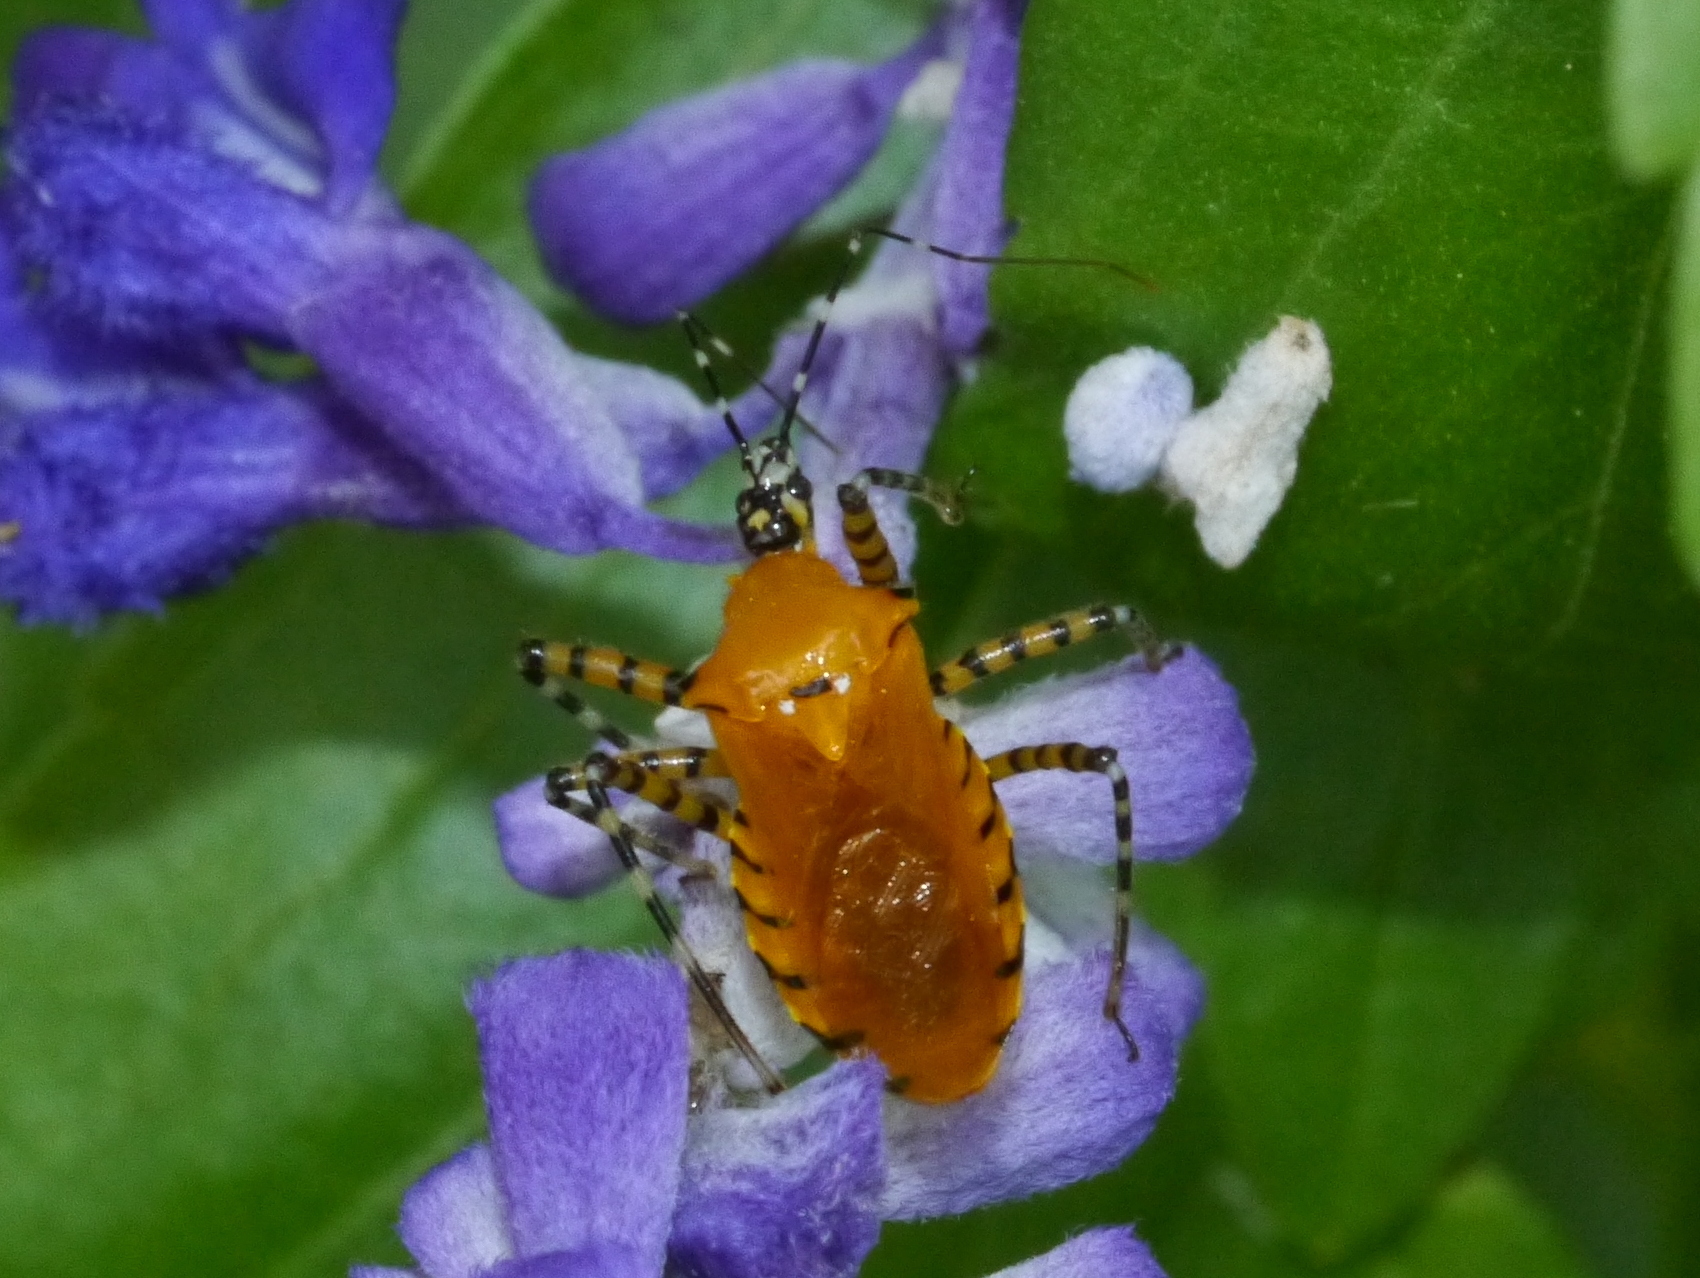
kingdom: Animalia
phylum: Arthropoda
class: Insecta
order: Hemiptera
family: Reduviidae
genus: Pselliopus
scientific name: Pselliopus barberi
